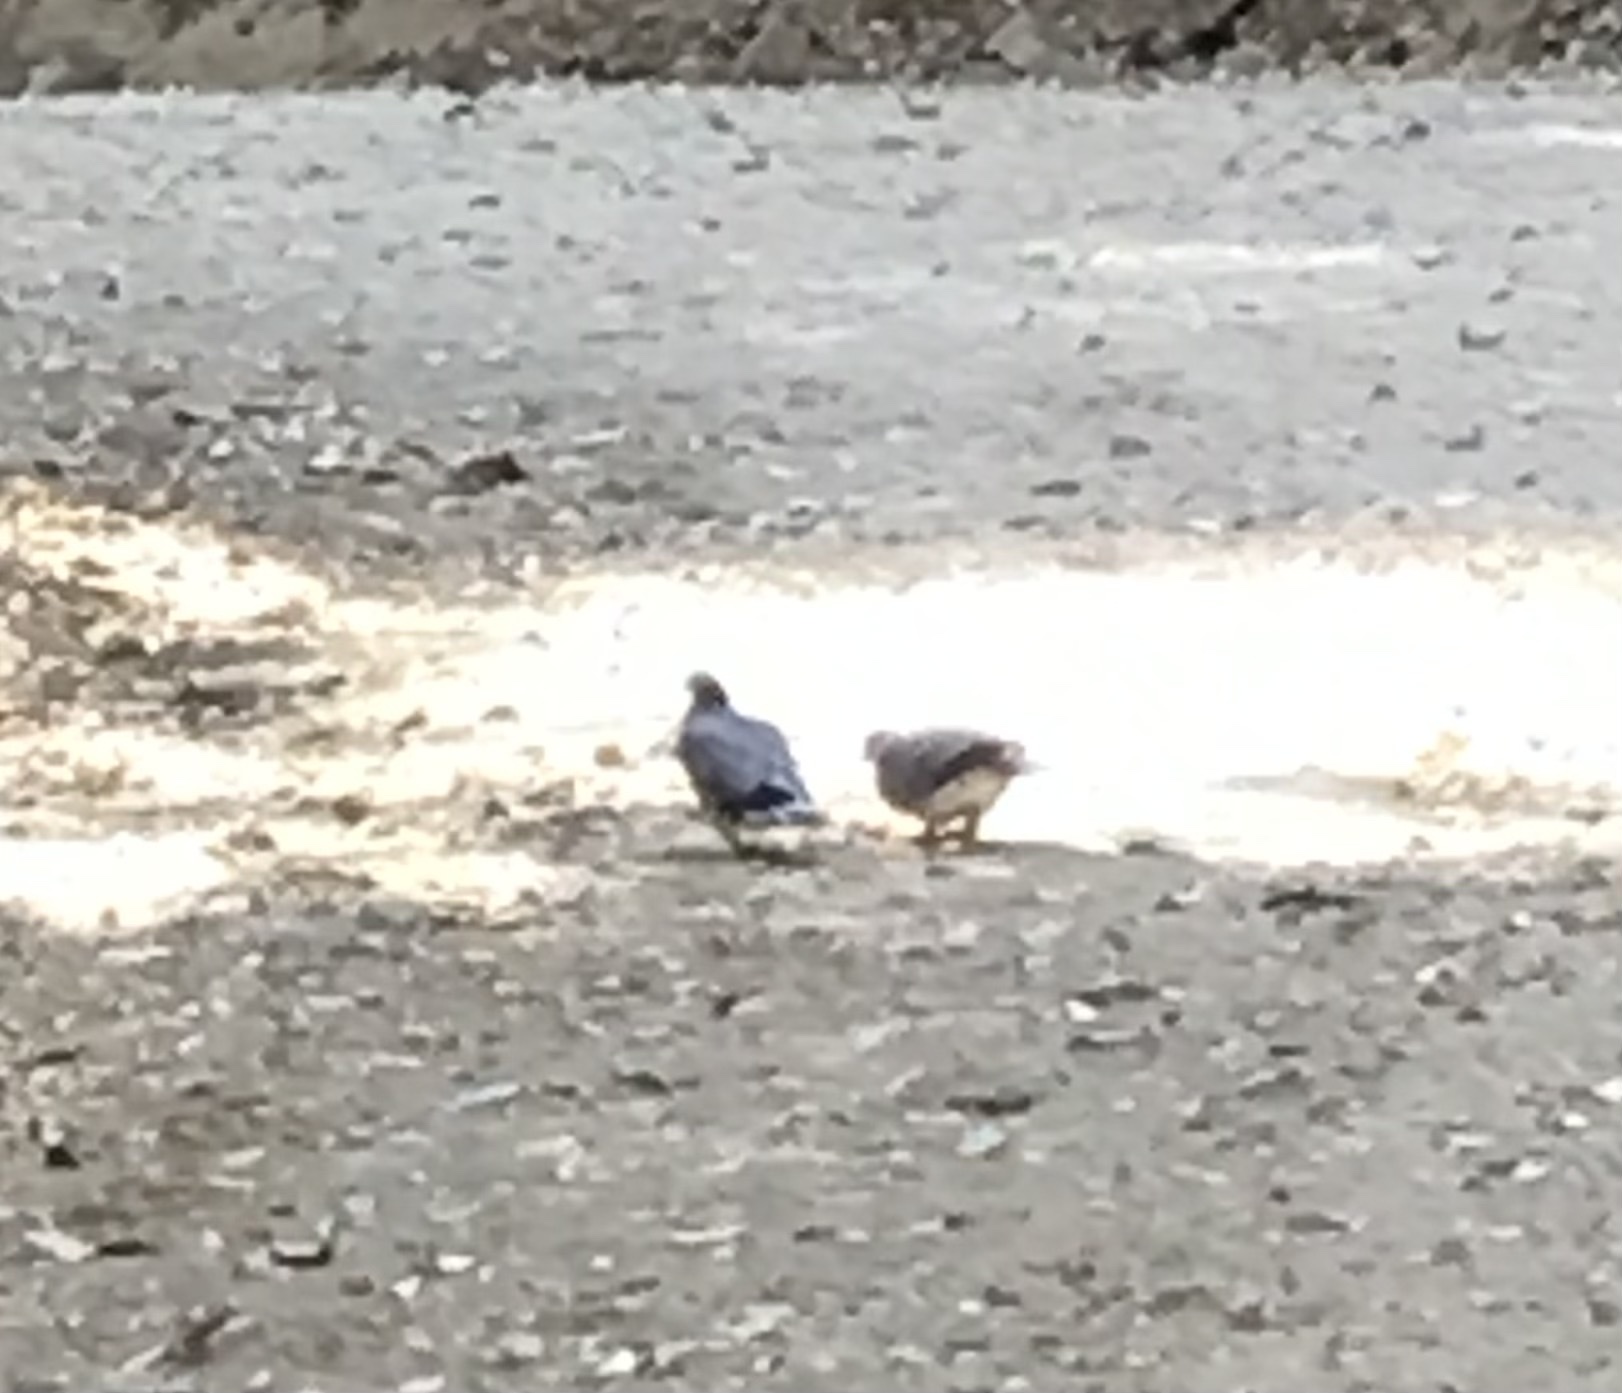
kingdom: Animalia
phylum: Chordata
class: Aves
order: Columbiformes
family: Columbidae
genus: Patagioenas
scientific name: Patagioenas fasciata
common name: Band-tailed pigeon
